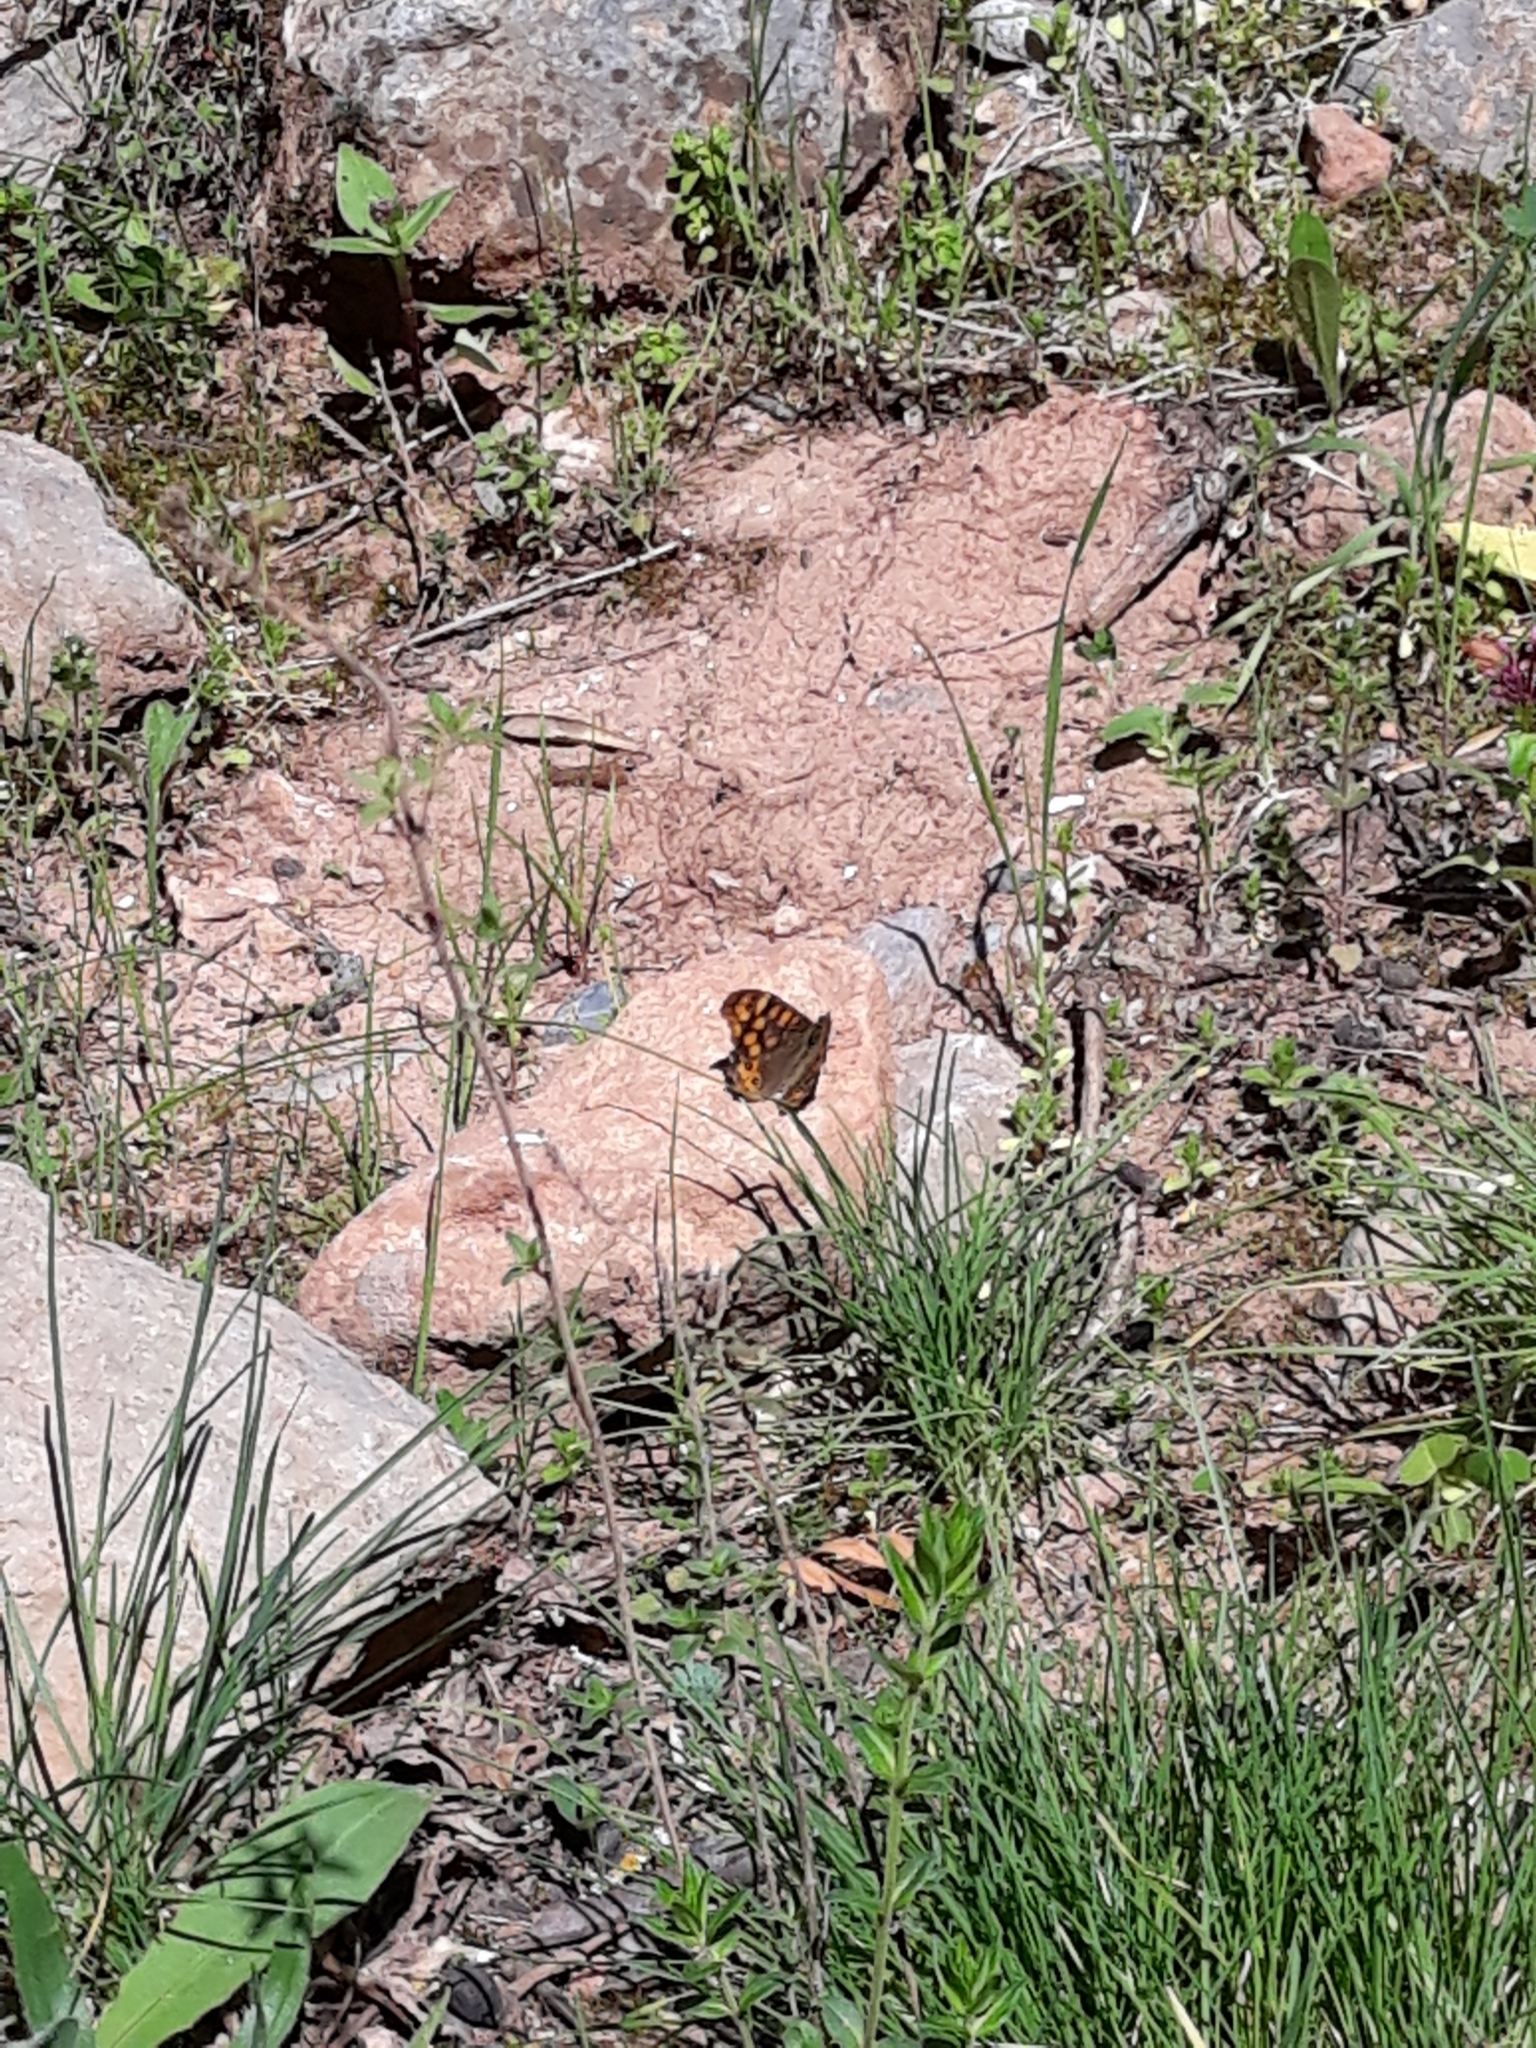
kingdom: Animalia
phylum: Arthropoda
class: Insecta
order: Lepidoptera
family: Nymphalidae
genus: Pararge
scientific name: Pararge aegeria
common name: Speckled wood
